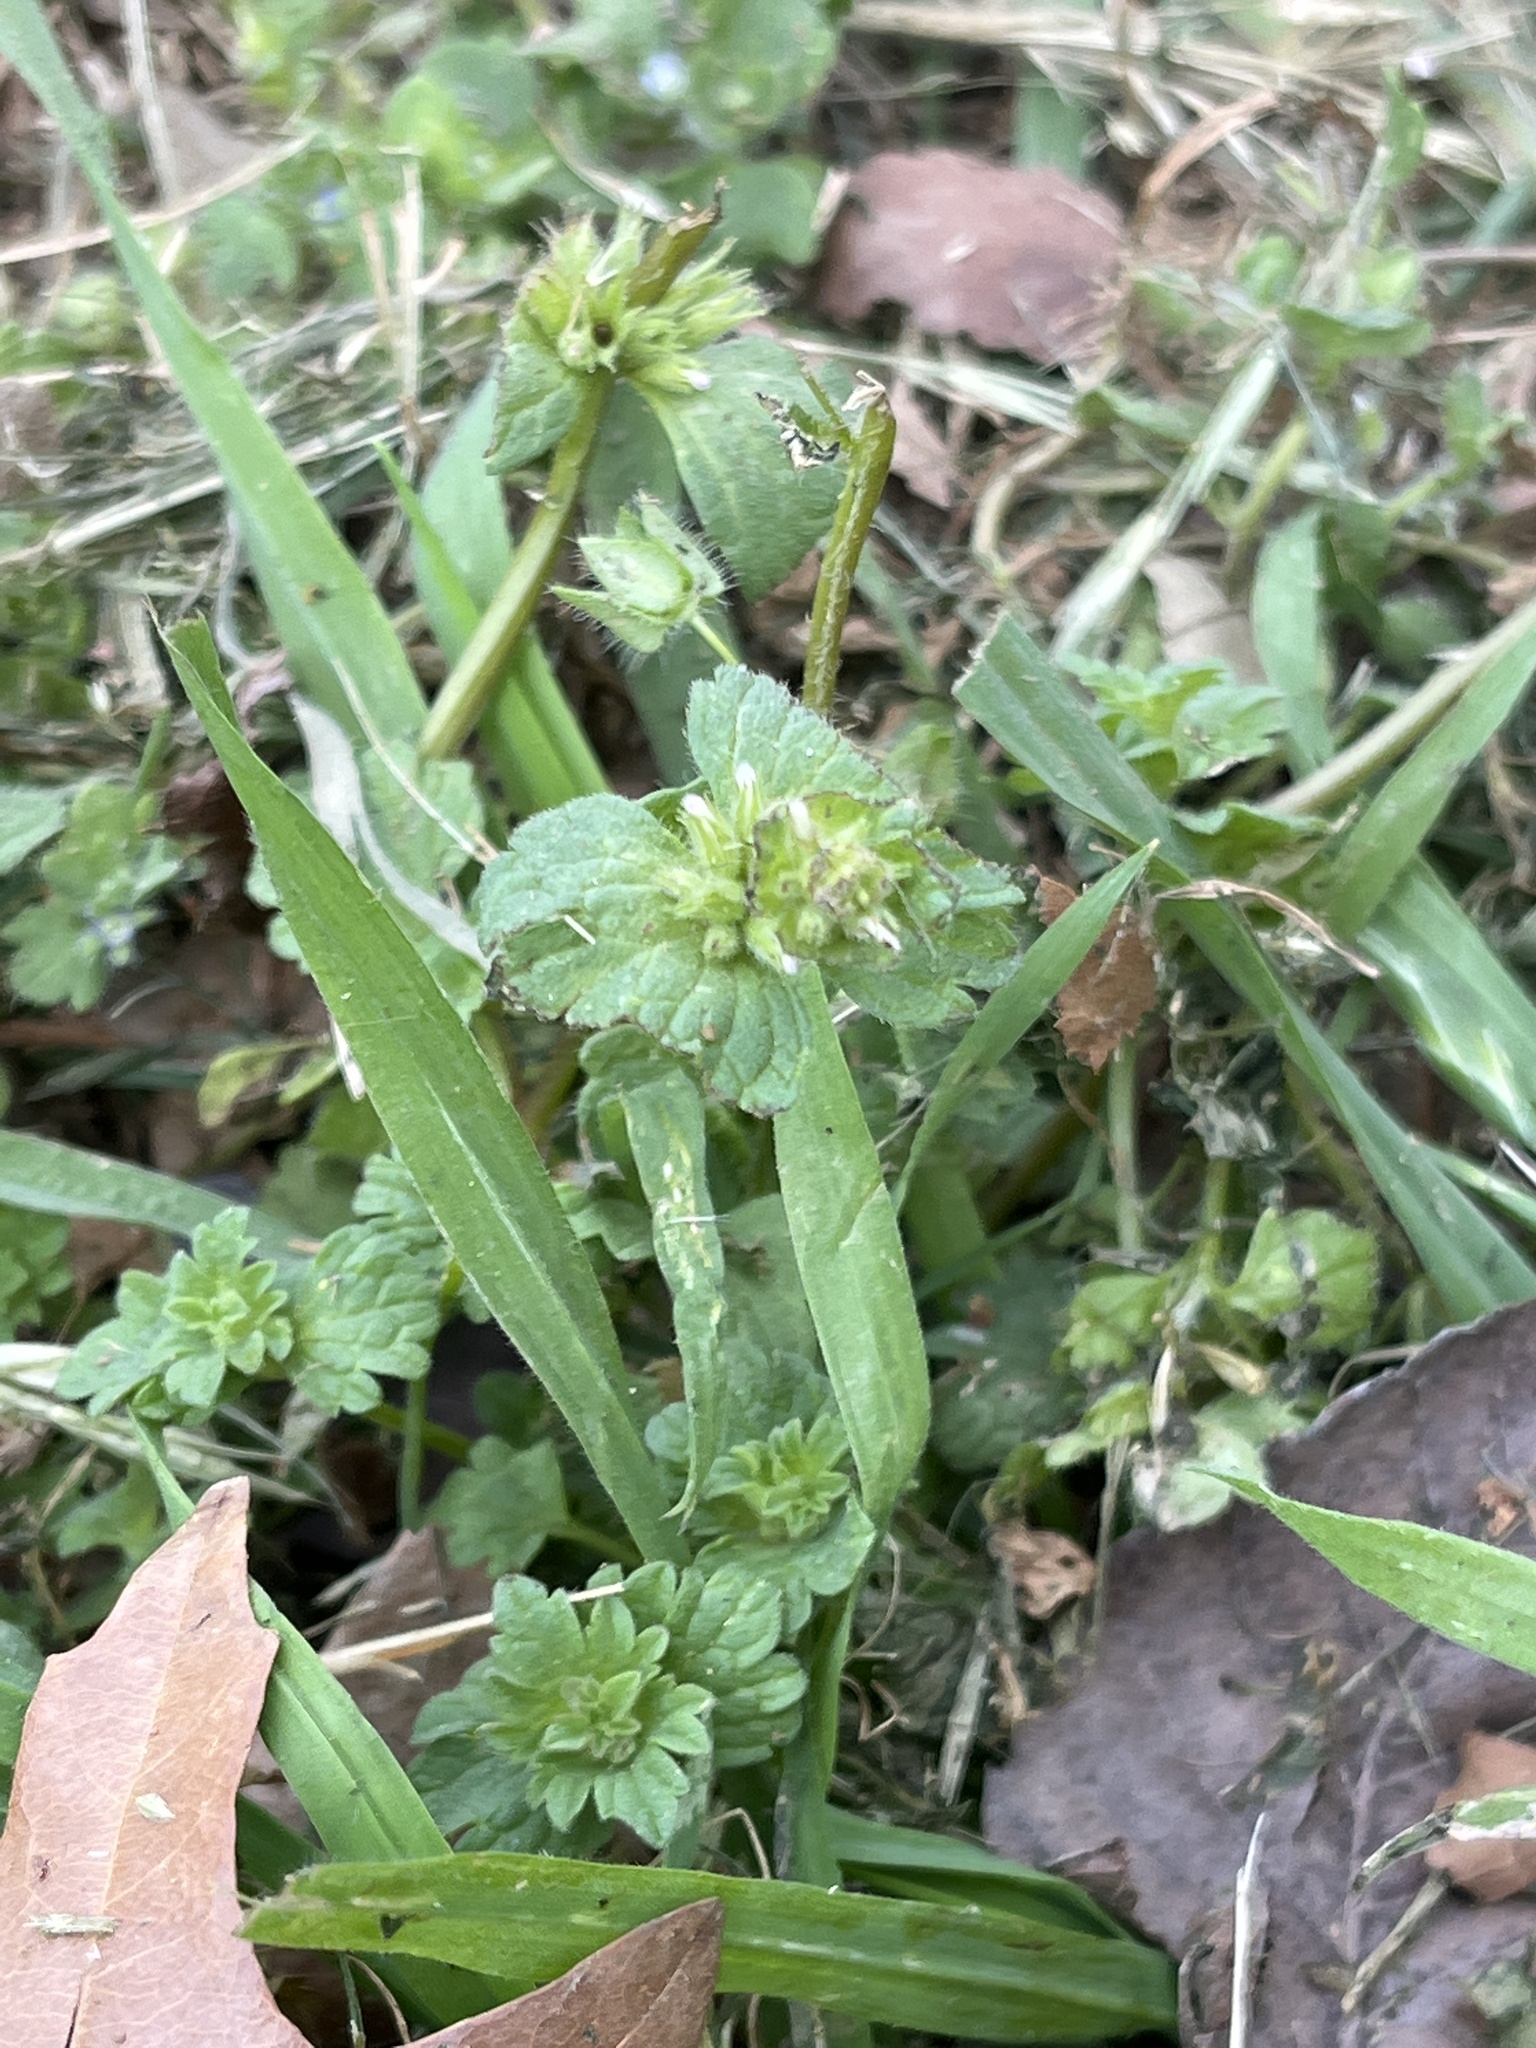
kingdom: Plantae
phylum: Tracheophyta
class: Magnoliopsida
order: Lamiales
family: Lamiaceae
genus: Lamium
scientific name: Lamium amplexicaule
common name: Henbit dead-nettle
